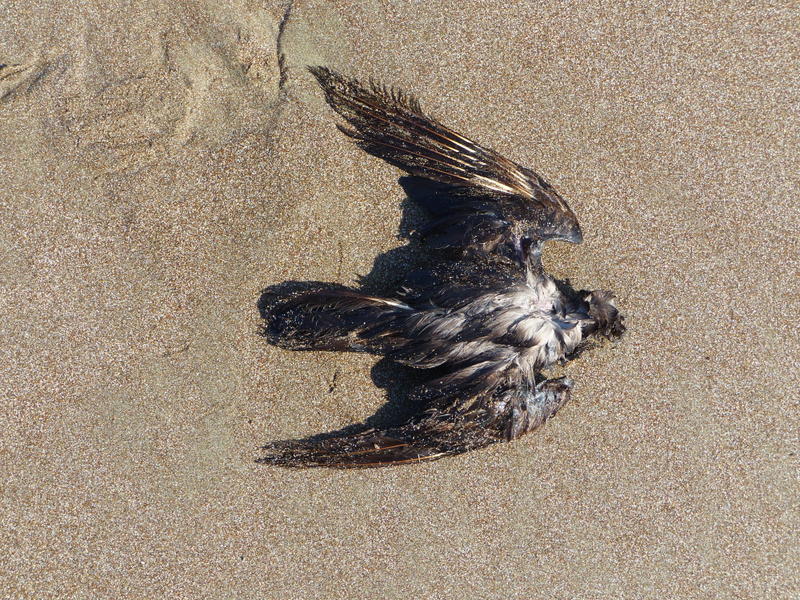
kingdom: Animalia
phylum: Chordata
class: Aves
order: Procellariiformes
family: Hydrobatidae
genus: Oceanodroma
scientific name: Oceanodroma monorhis
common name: Swinhoe's storm-petrel
